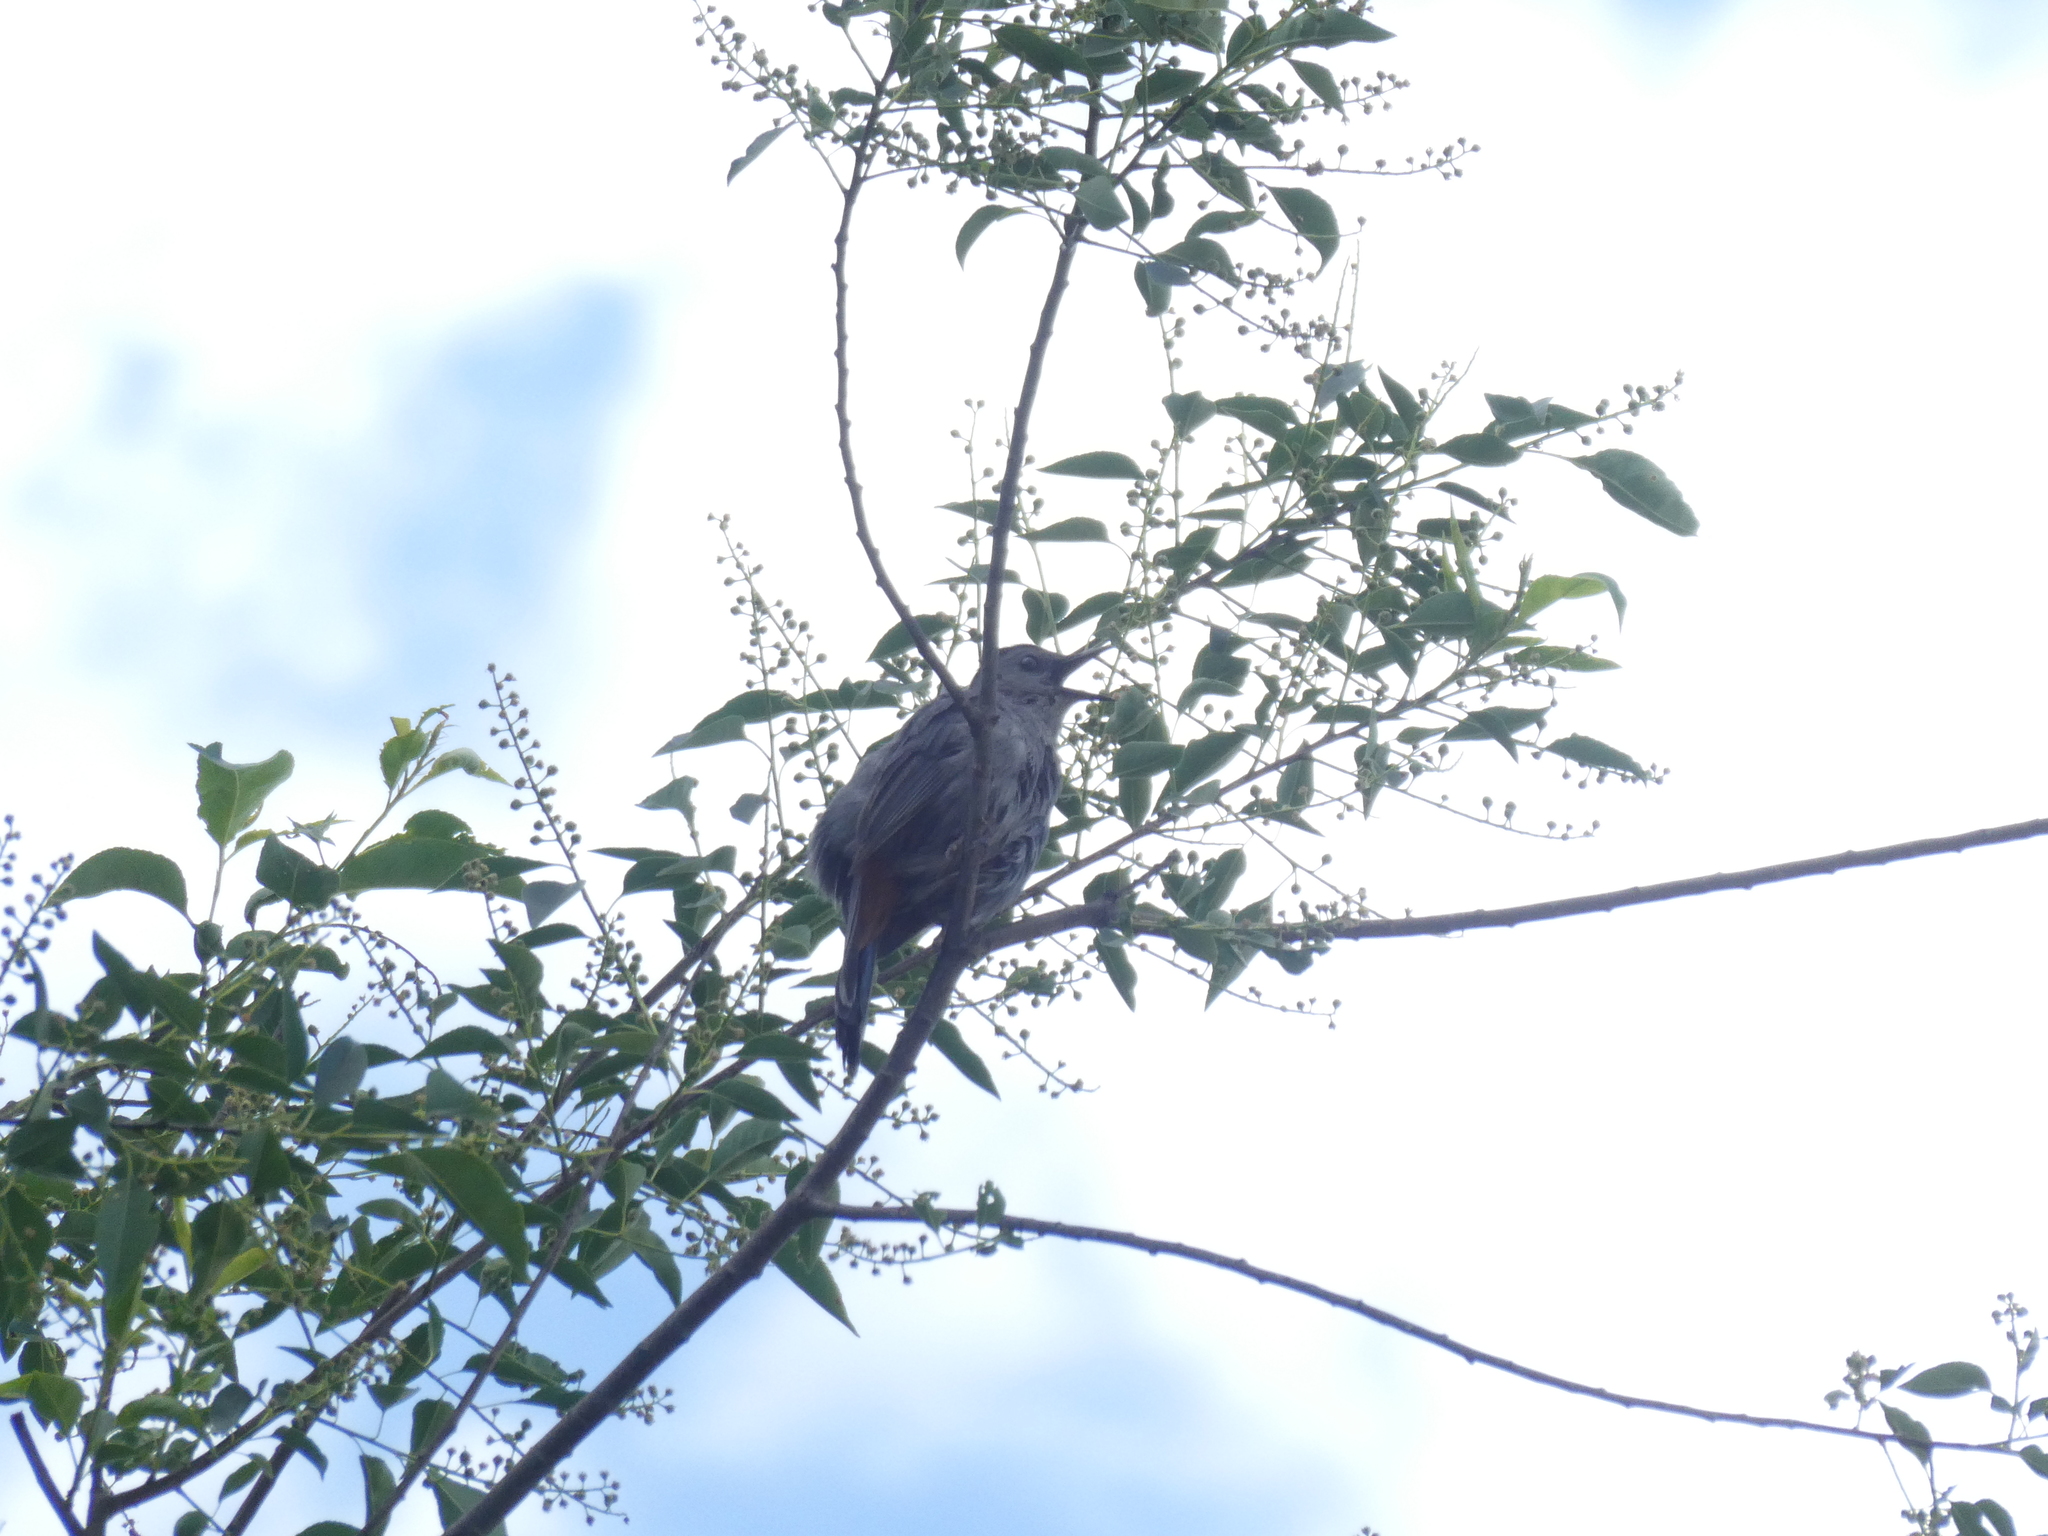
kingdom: Animalia
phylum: Chordata
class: Aves
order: Passeriformes
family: Mimidae
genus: Dumetella
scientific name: Dumetella carolinensis
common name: Gray catbird
